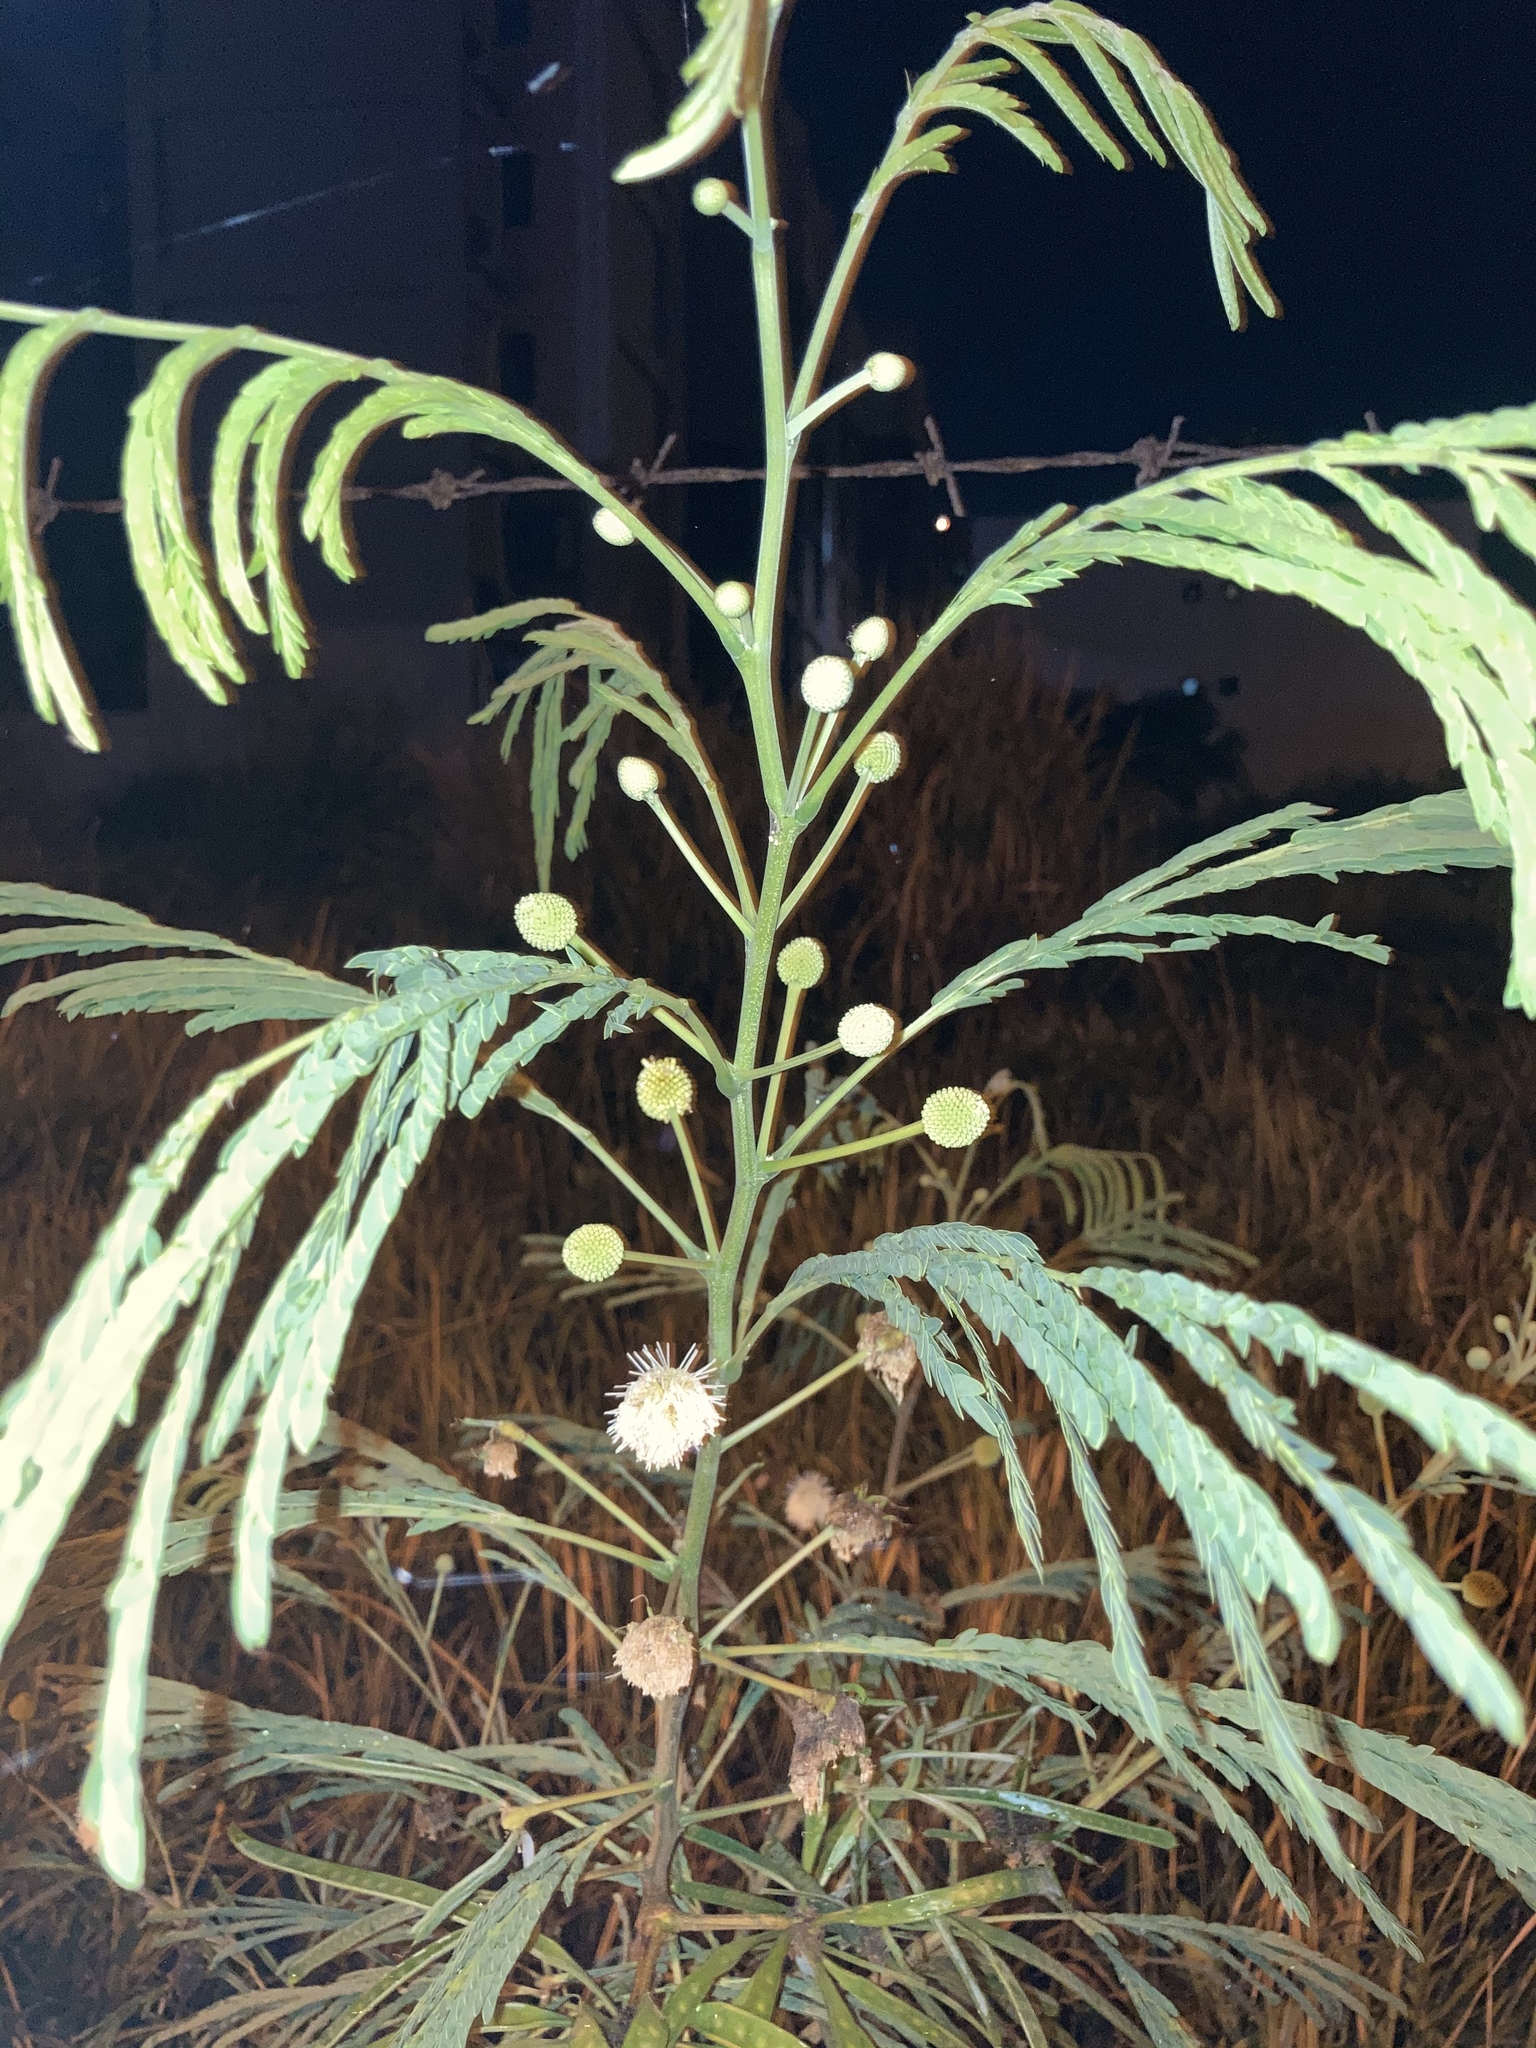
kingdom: Plantae
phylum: Tracheophyta
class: Magnoliopsida
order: Fabales
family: Fabaceae
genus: Leucaena
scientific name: Leucaena leucocephala
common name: White leadtree
